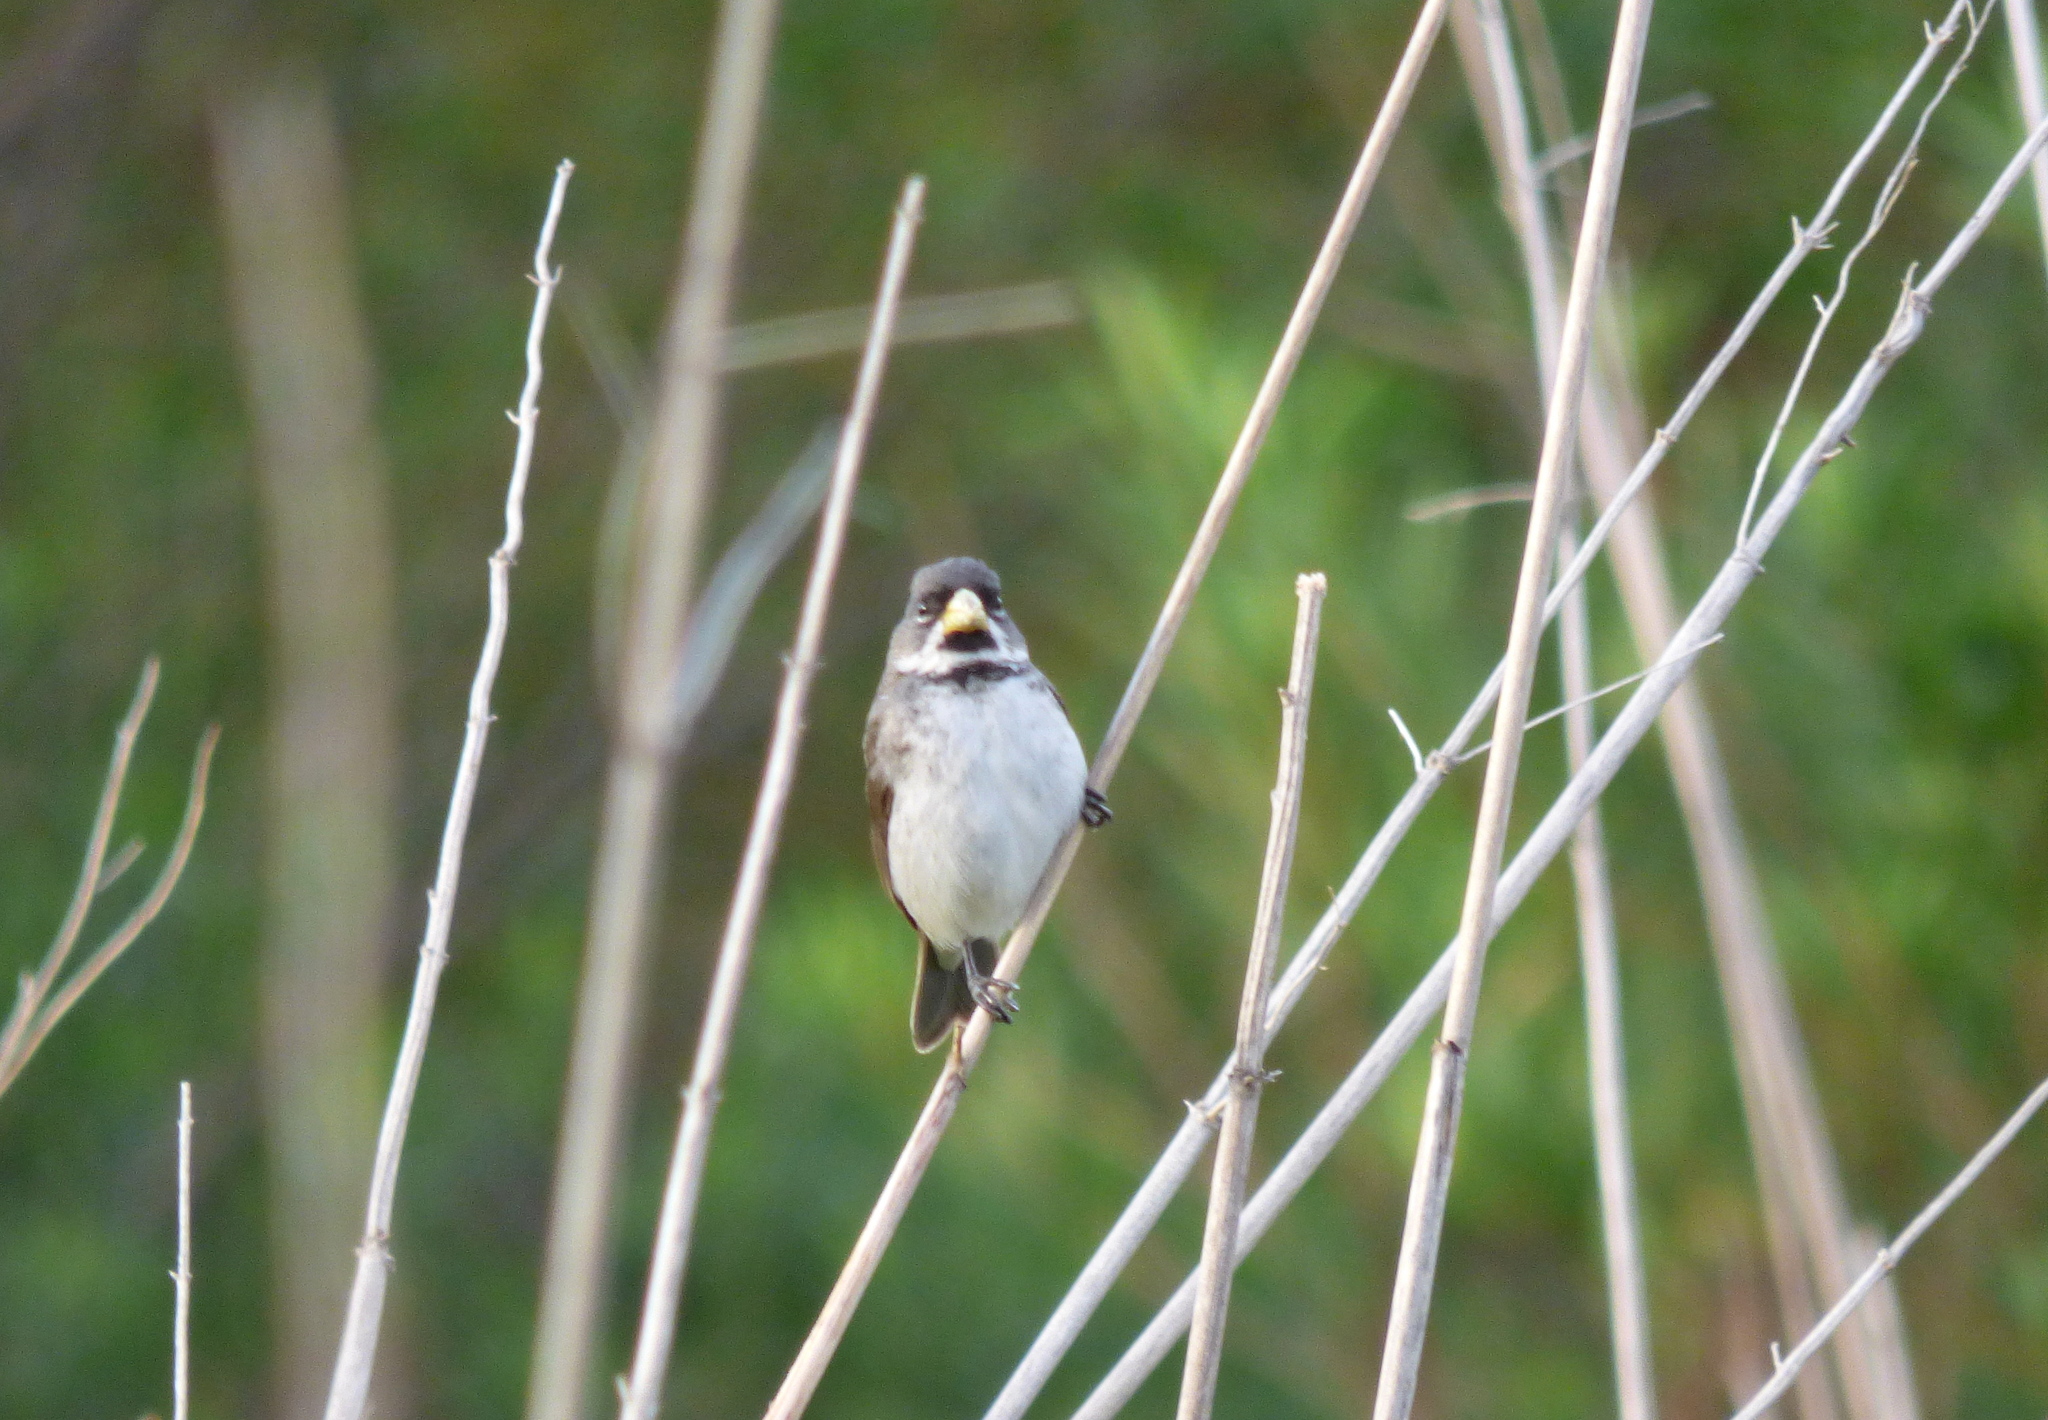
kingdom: Animalia
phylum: Chordata
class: Aves
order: Passeriformes
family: Thraupidae
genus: Sporophila
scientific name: Sporophila caerulescens
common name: Double-collared seedeater
